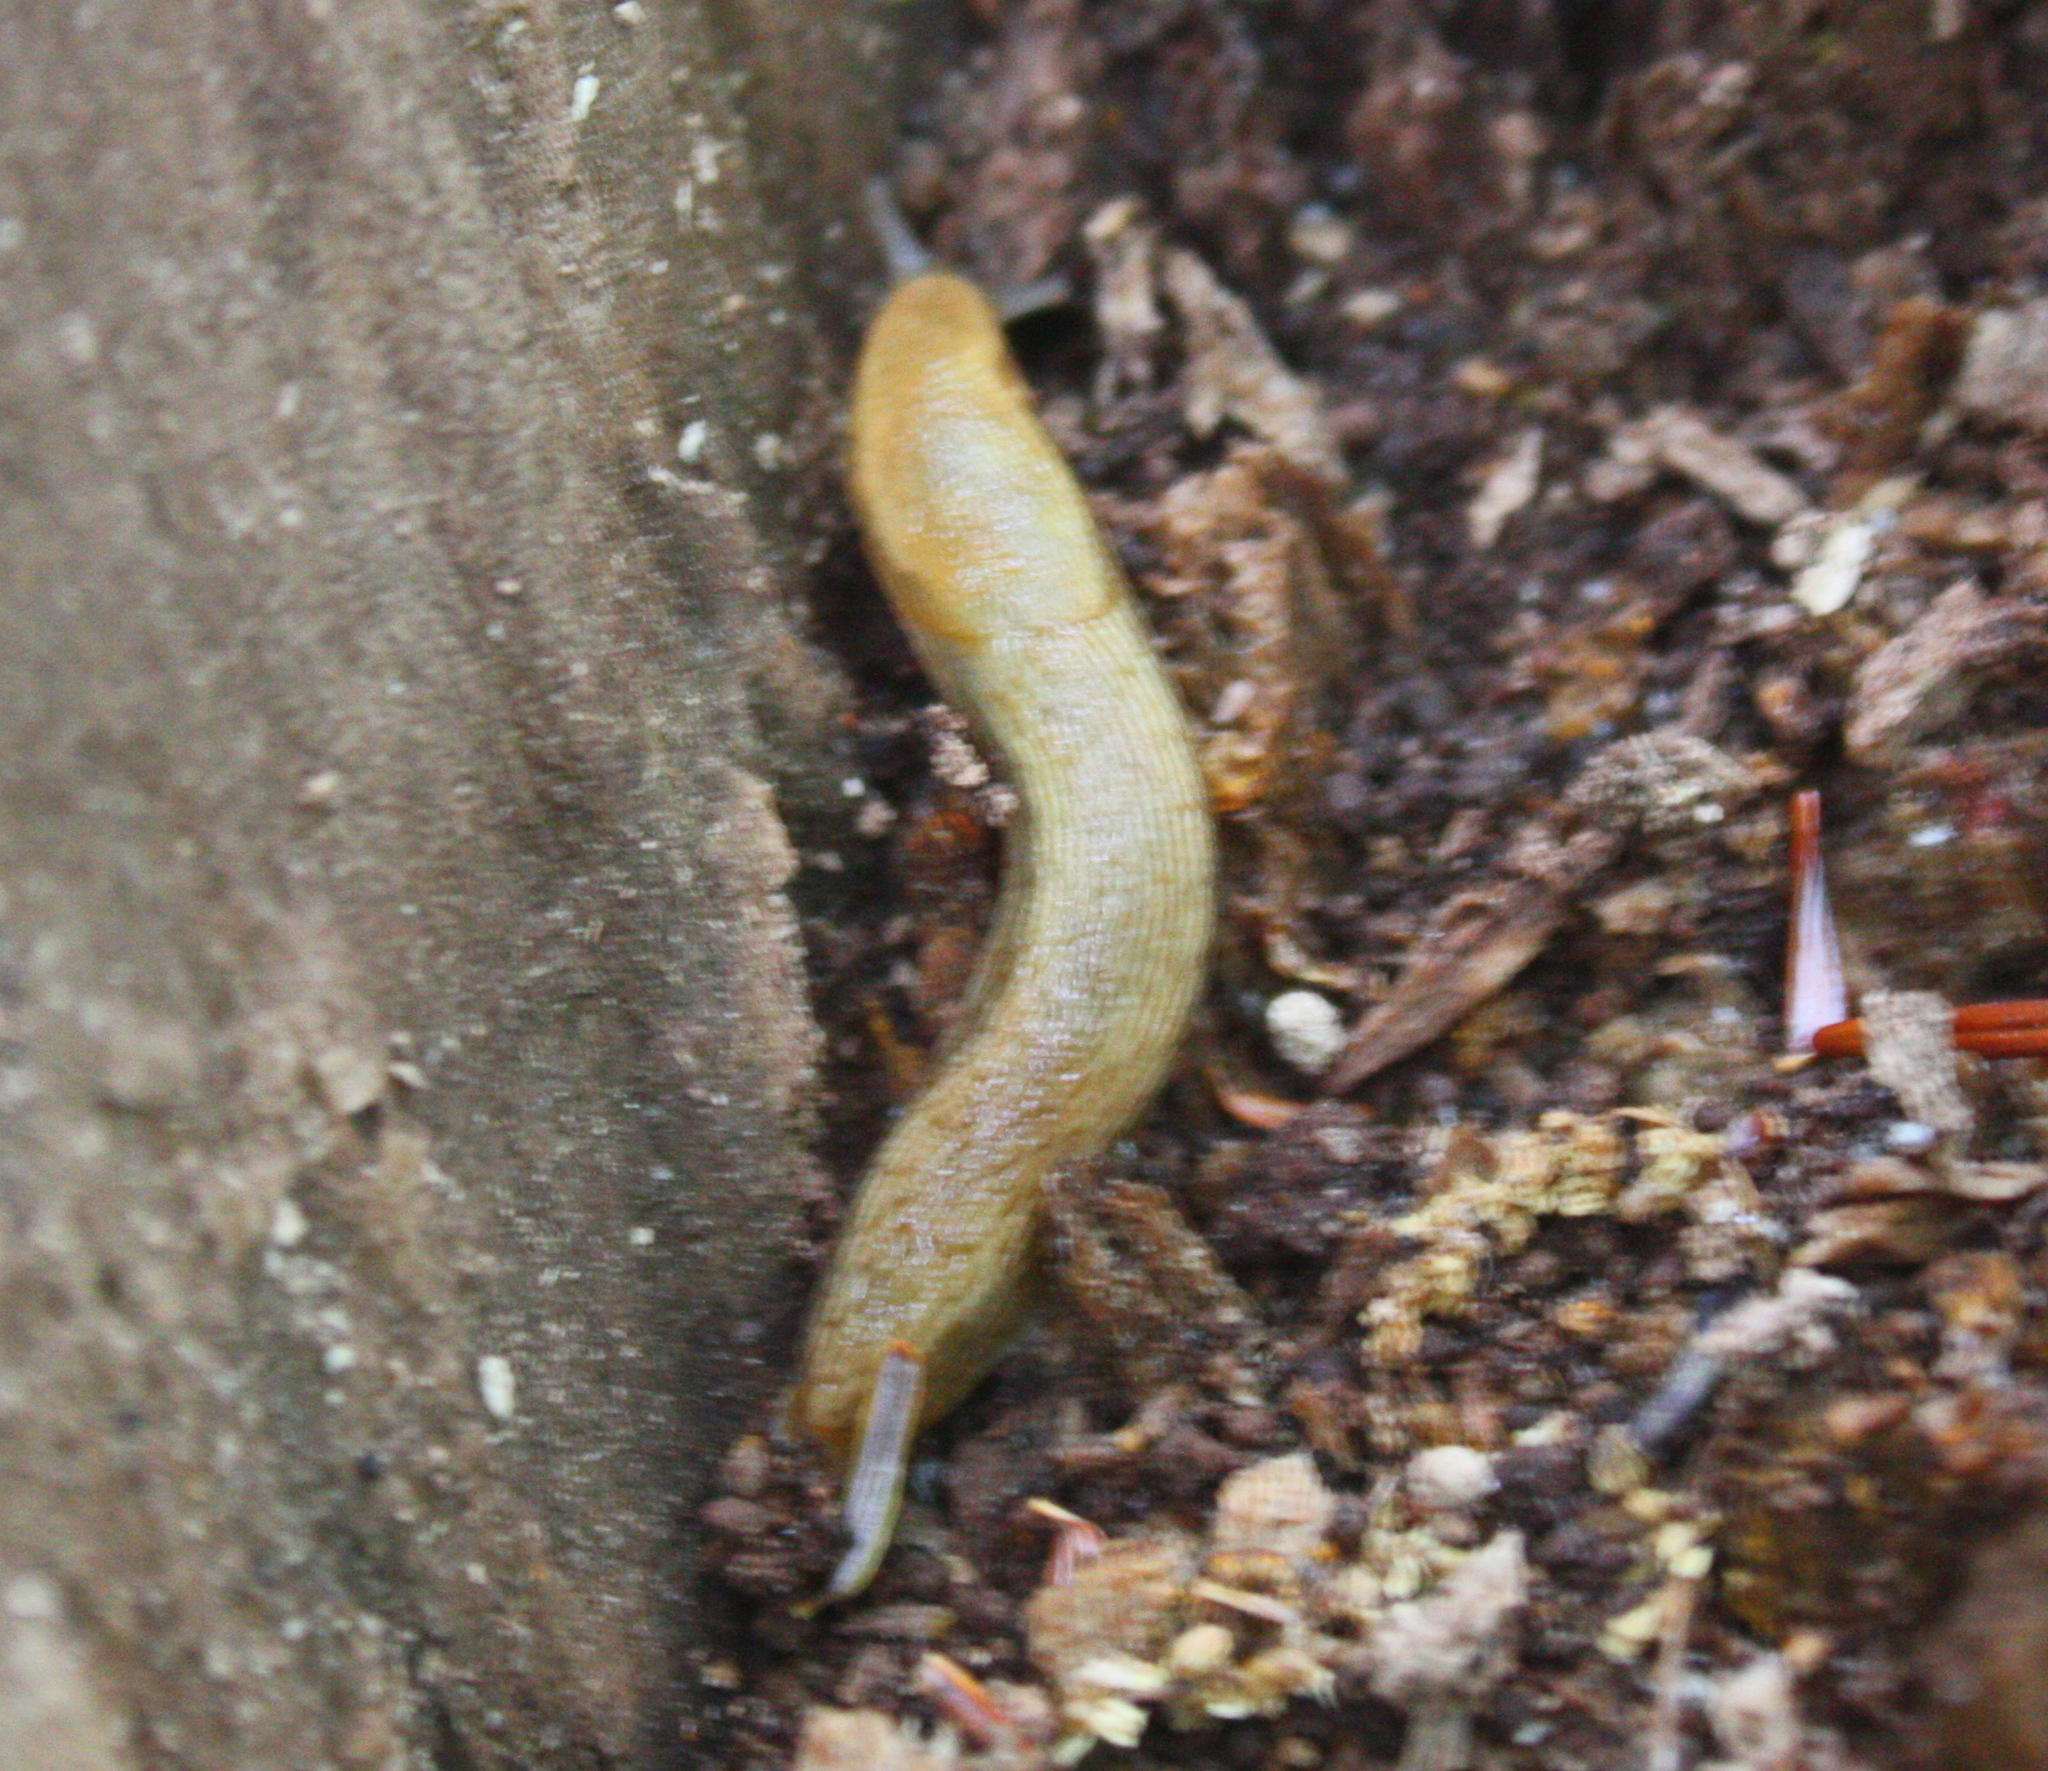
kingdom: Animalia
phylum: Mollusca
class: Gastropoda
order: Stylommatophora
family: Arionidae
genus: Arion
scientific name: Arion subfuscus
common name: Dusky arion
